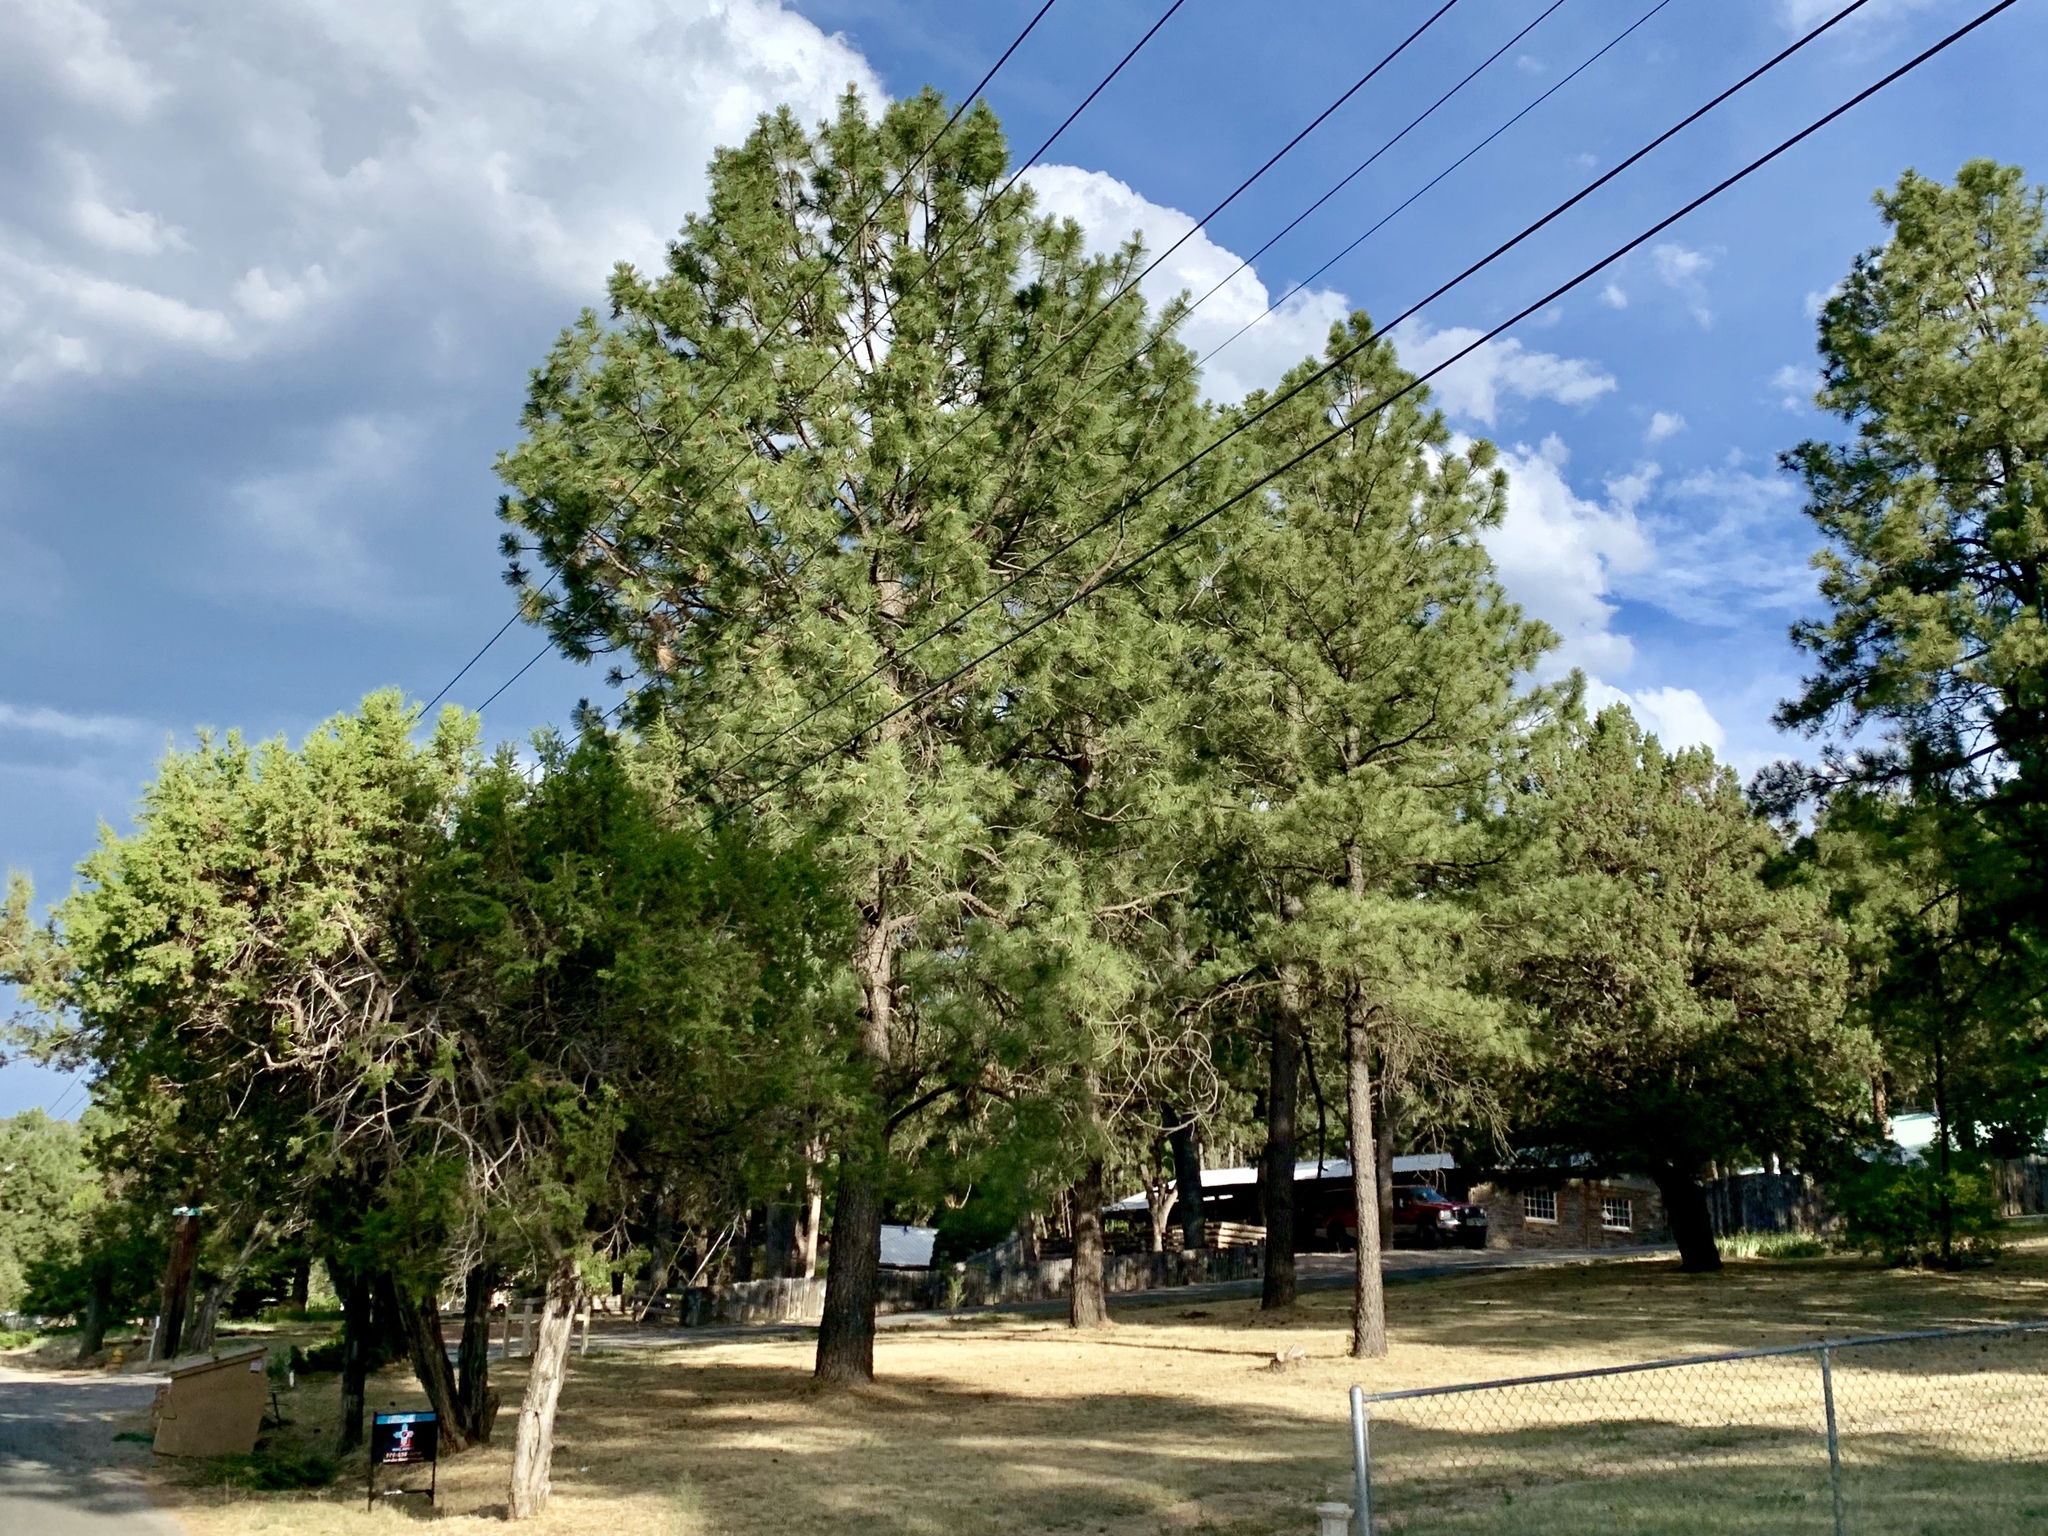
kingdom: Plantae
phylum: Tracheophyta
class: Pinopsida
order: Pinales
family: Pinaceae
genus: Pinus
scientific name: Pinus ponderosa
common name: Western yellow-pine
